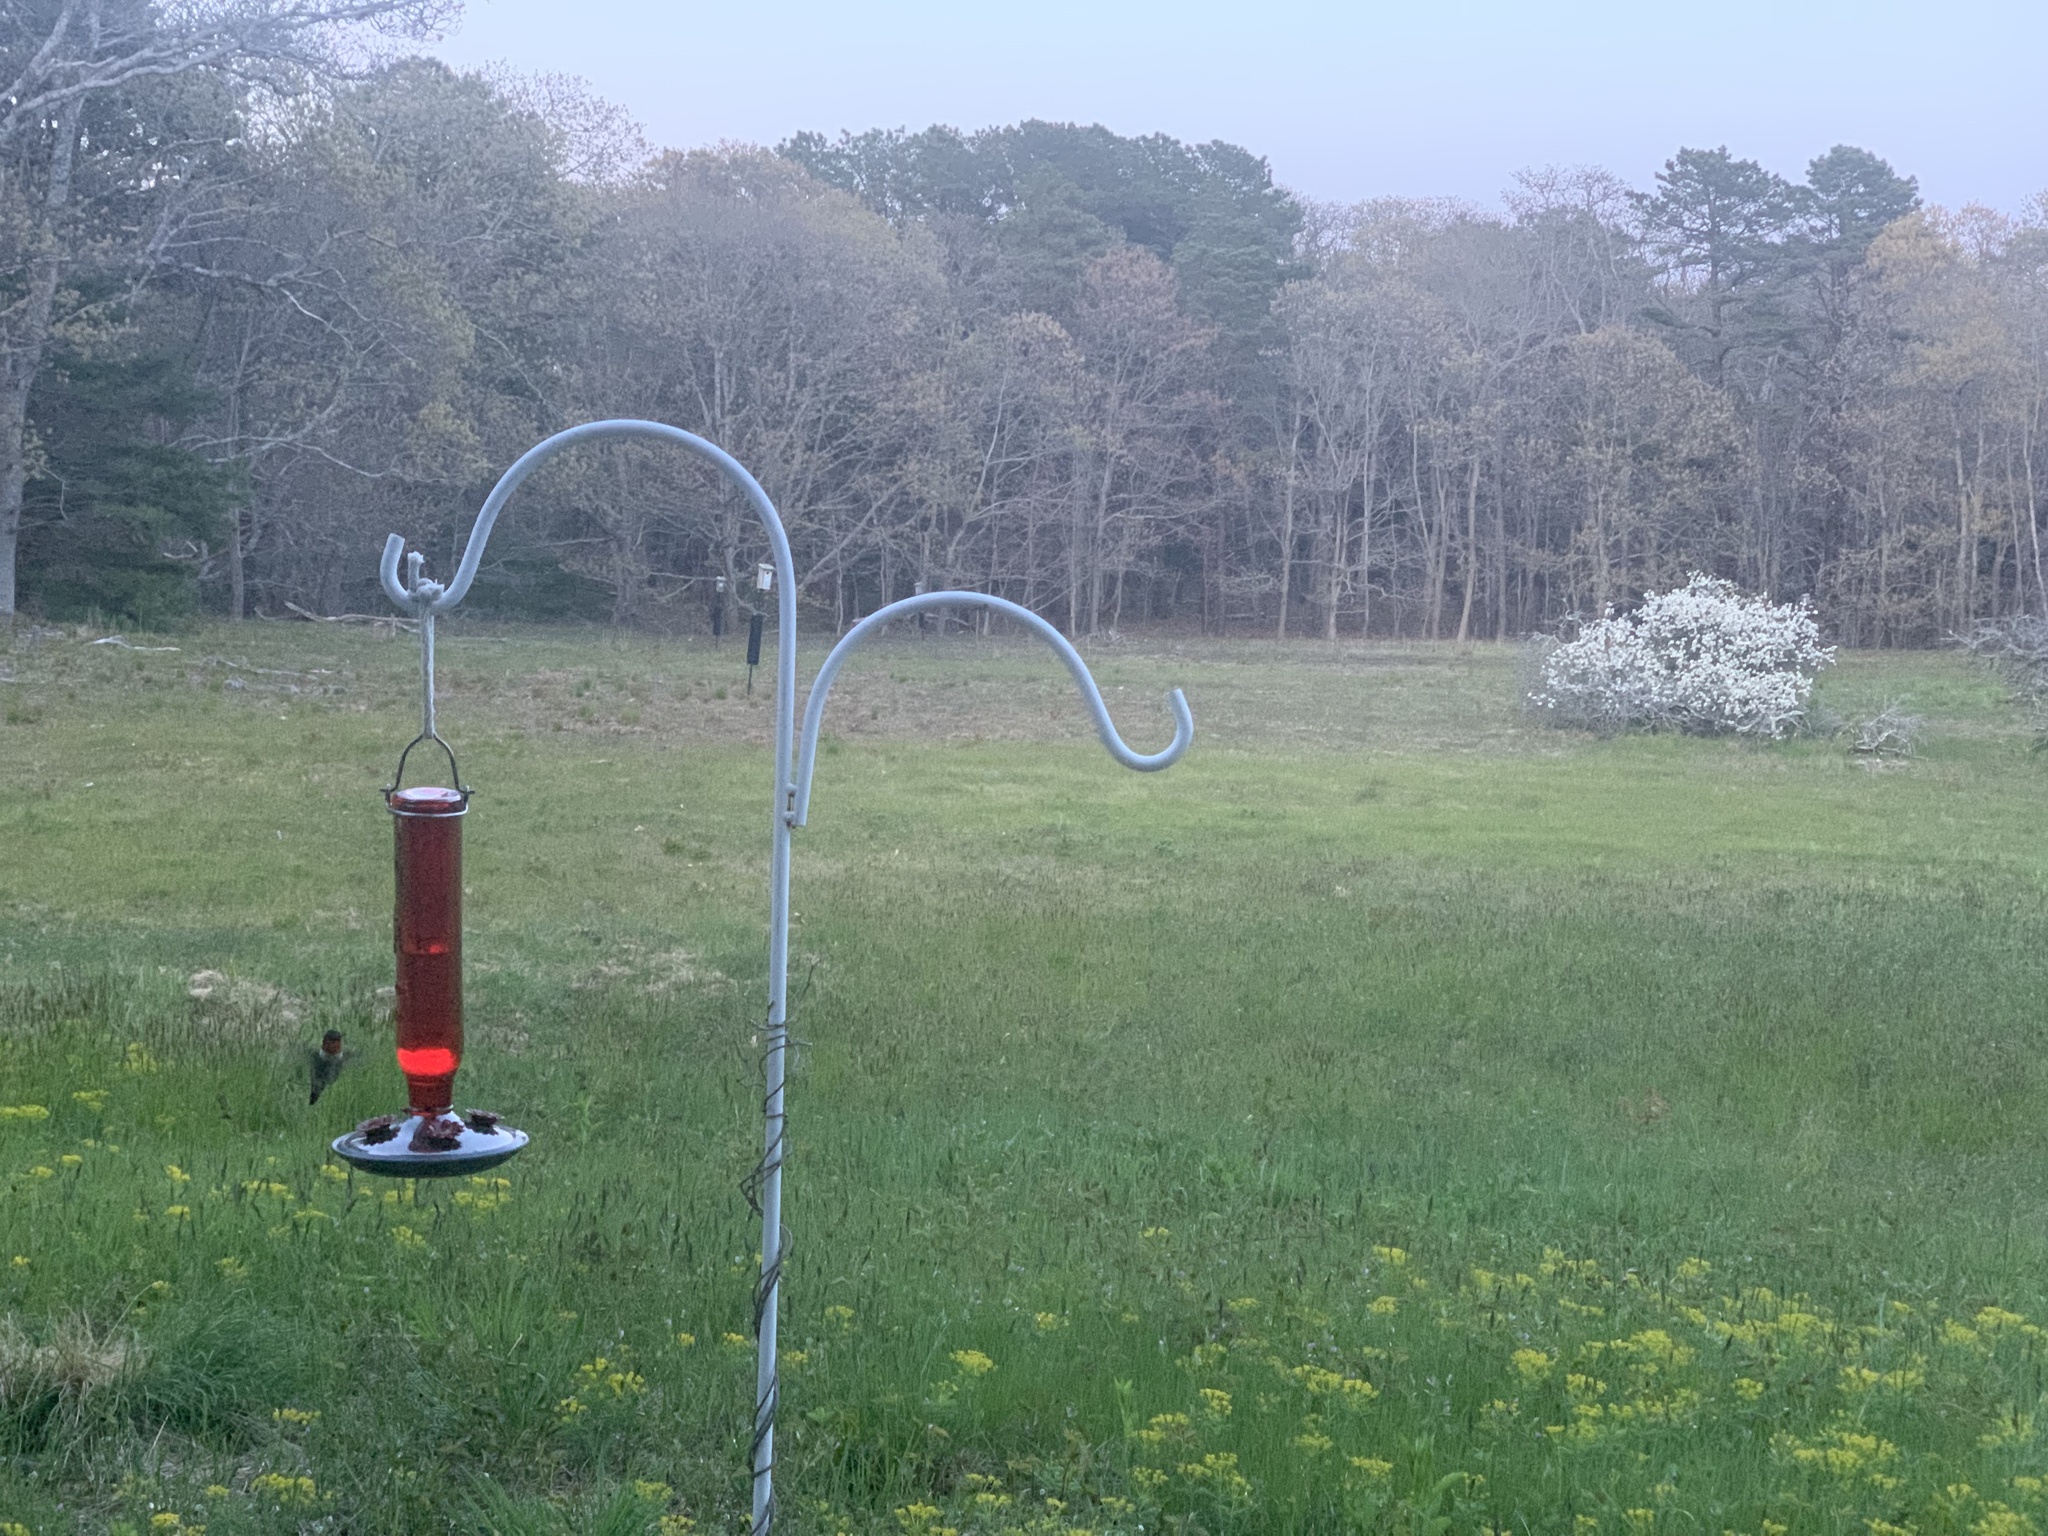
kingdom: Animalia
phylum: Chordata
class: Aves
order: Apodiformes
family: Trochilidae
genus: Archilochus
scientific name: Archilochus colubris
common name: Ruby-throated hummingbird
